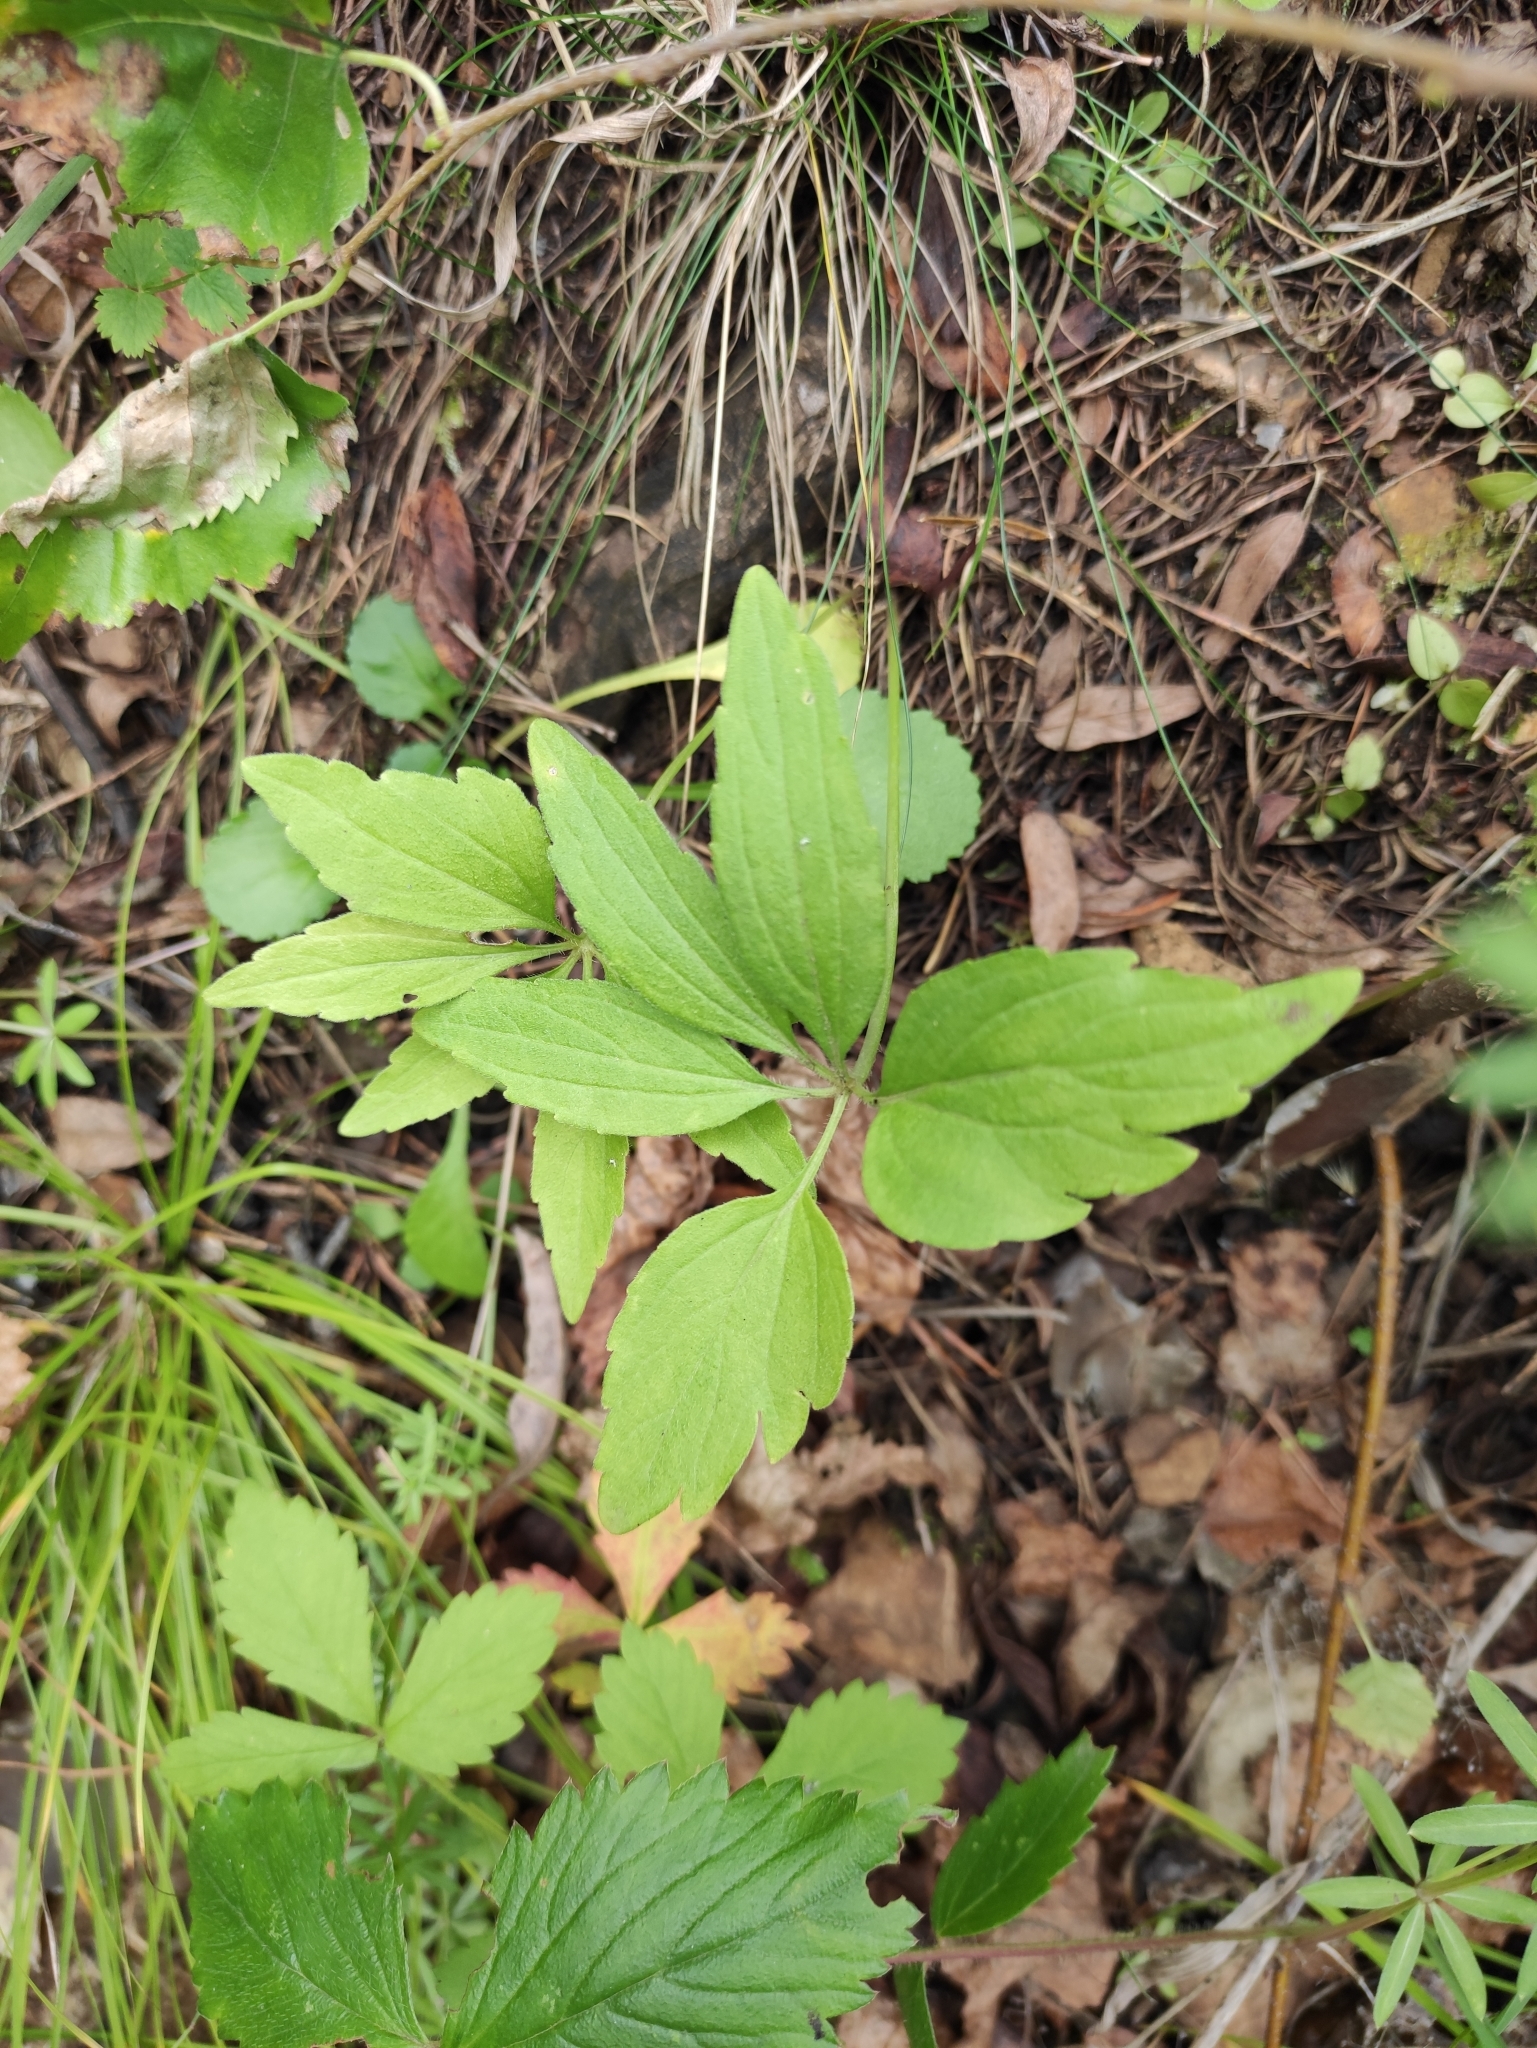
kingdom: Plantae
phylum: Tracheophyta
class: Magnoliopsida
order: Malpighiales
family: Violaceae
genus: Viola
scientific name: Viola dactyloides
